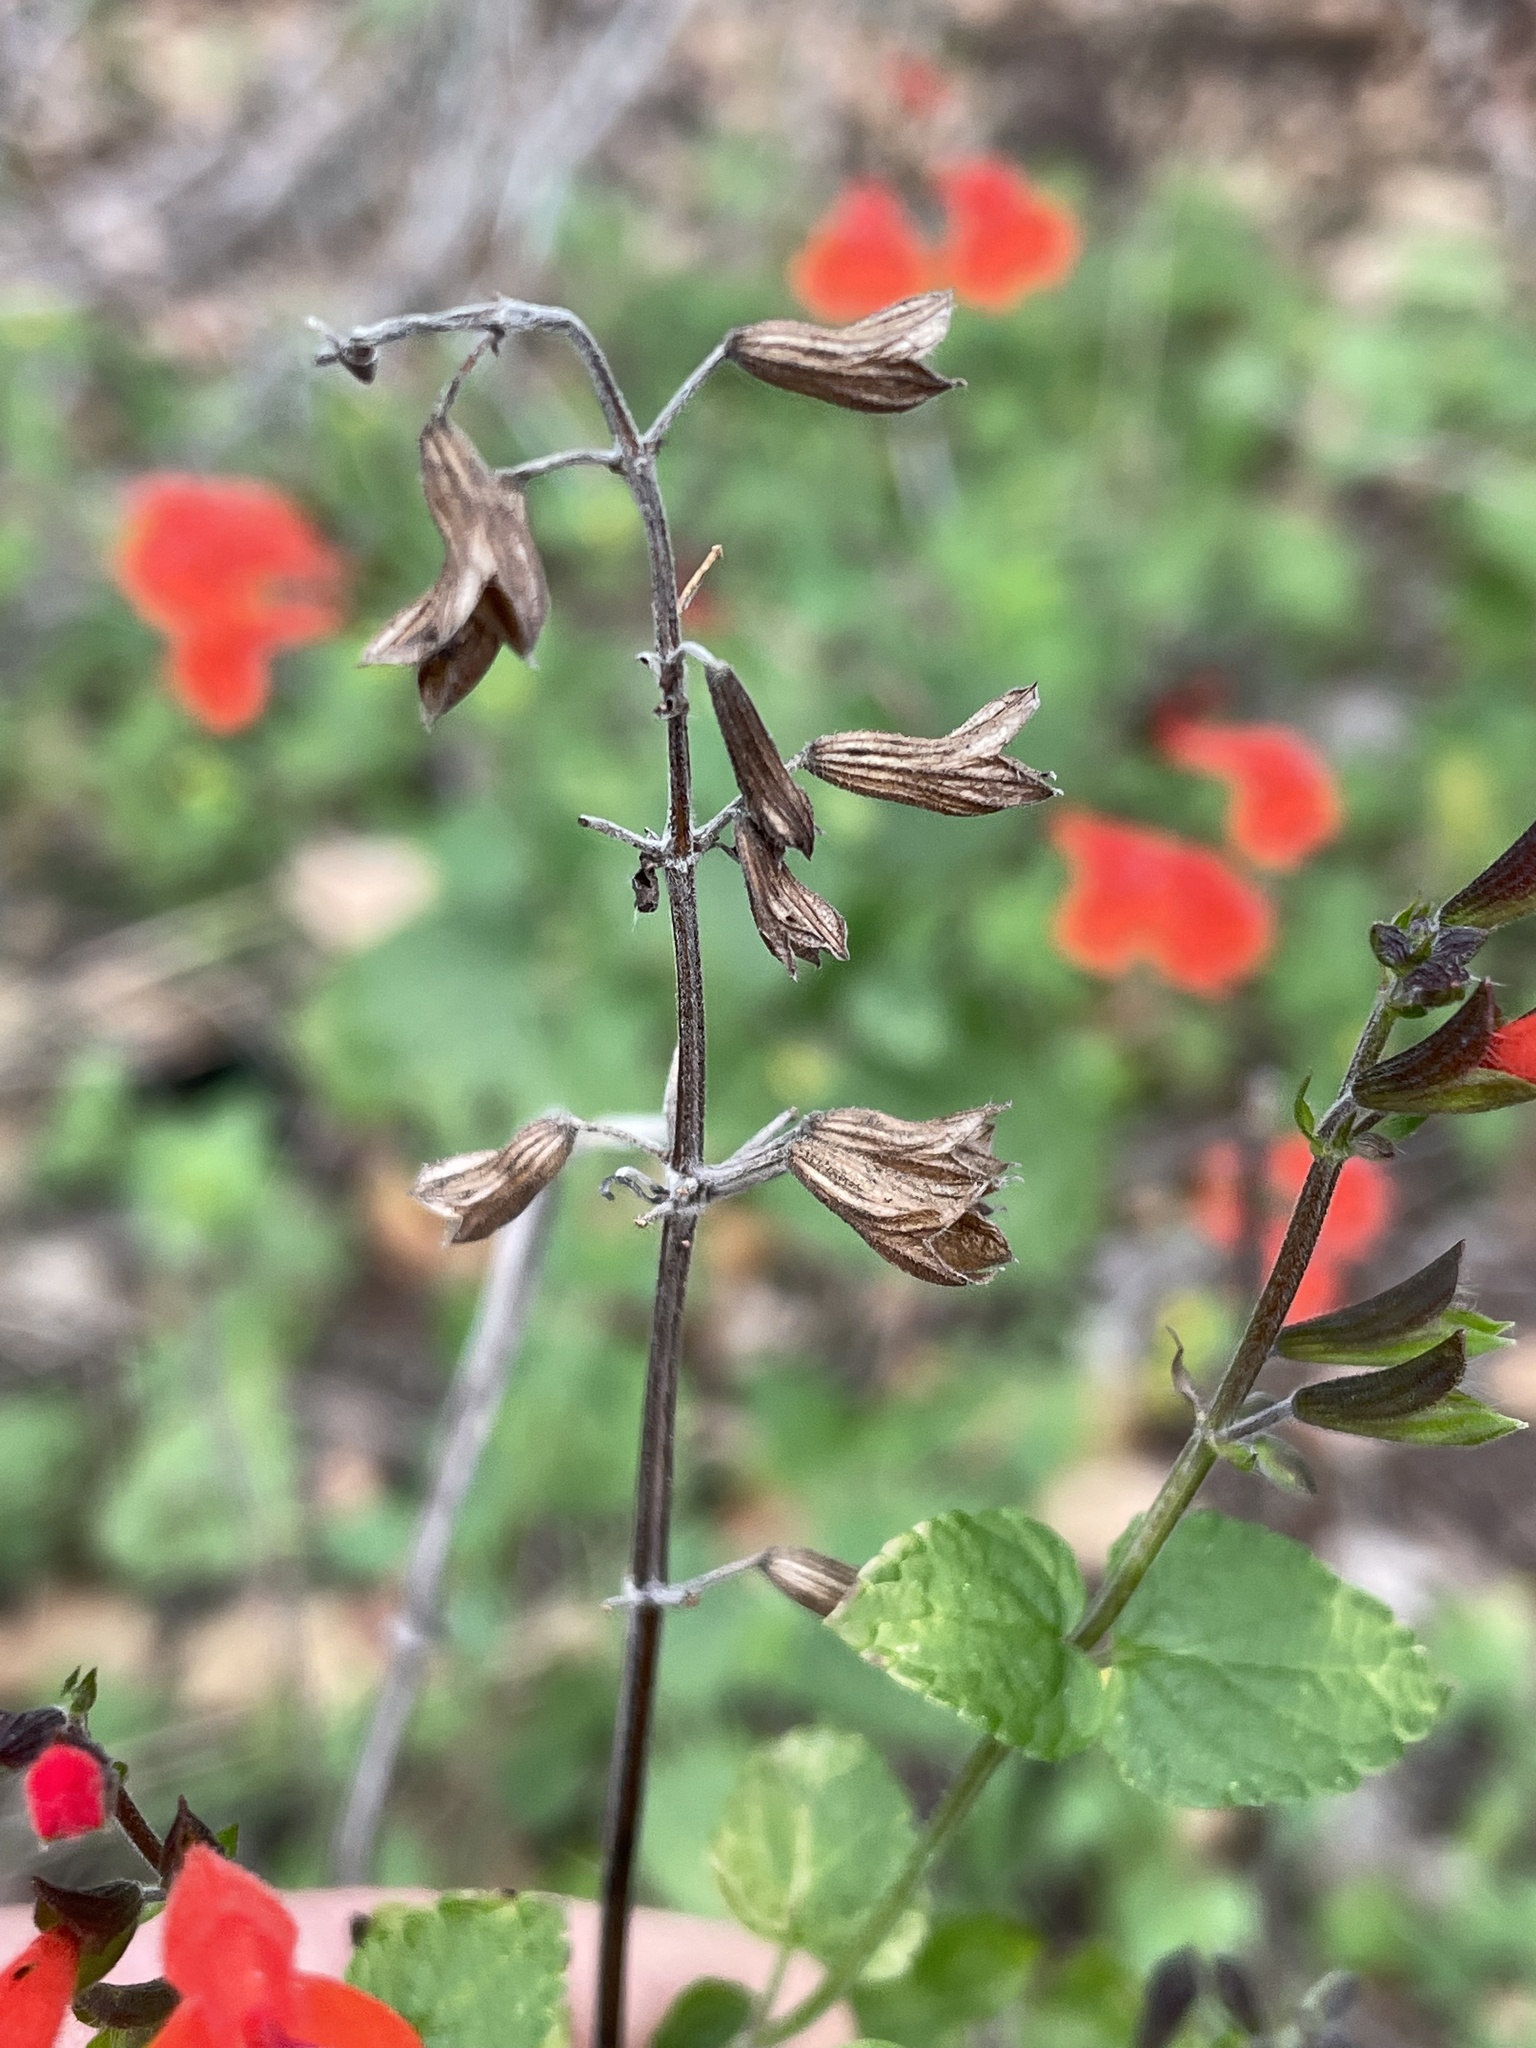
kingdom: Plantae
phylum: Tracheophyta
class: Magnoliopsida
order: Lamiales
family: Lamiaceae
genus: Salvia
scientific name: Salvia coccinea
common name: Blood sage
